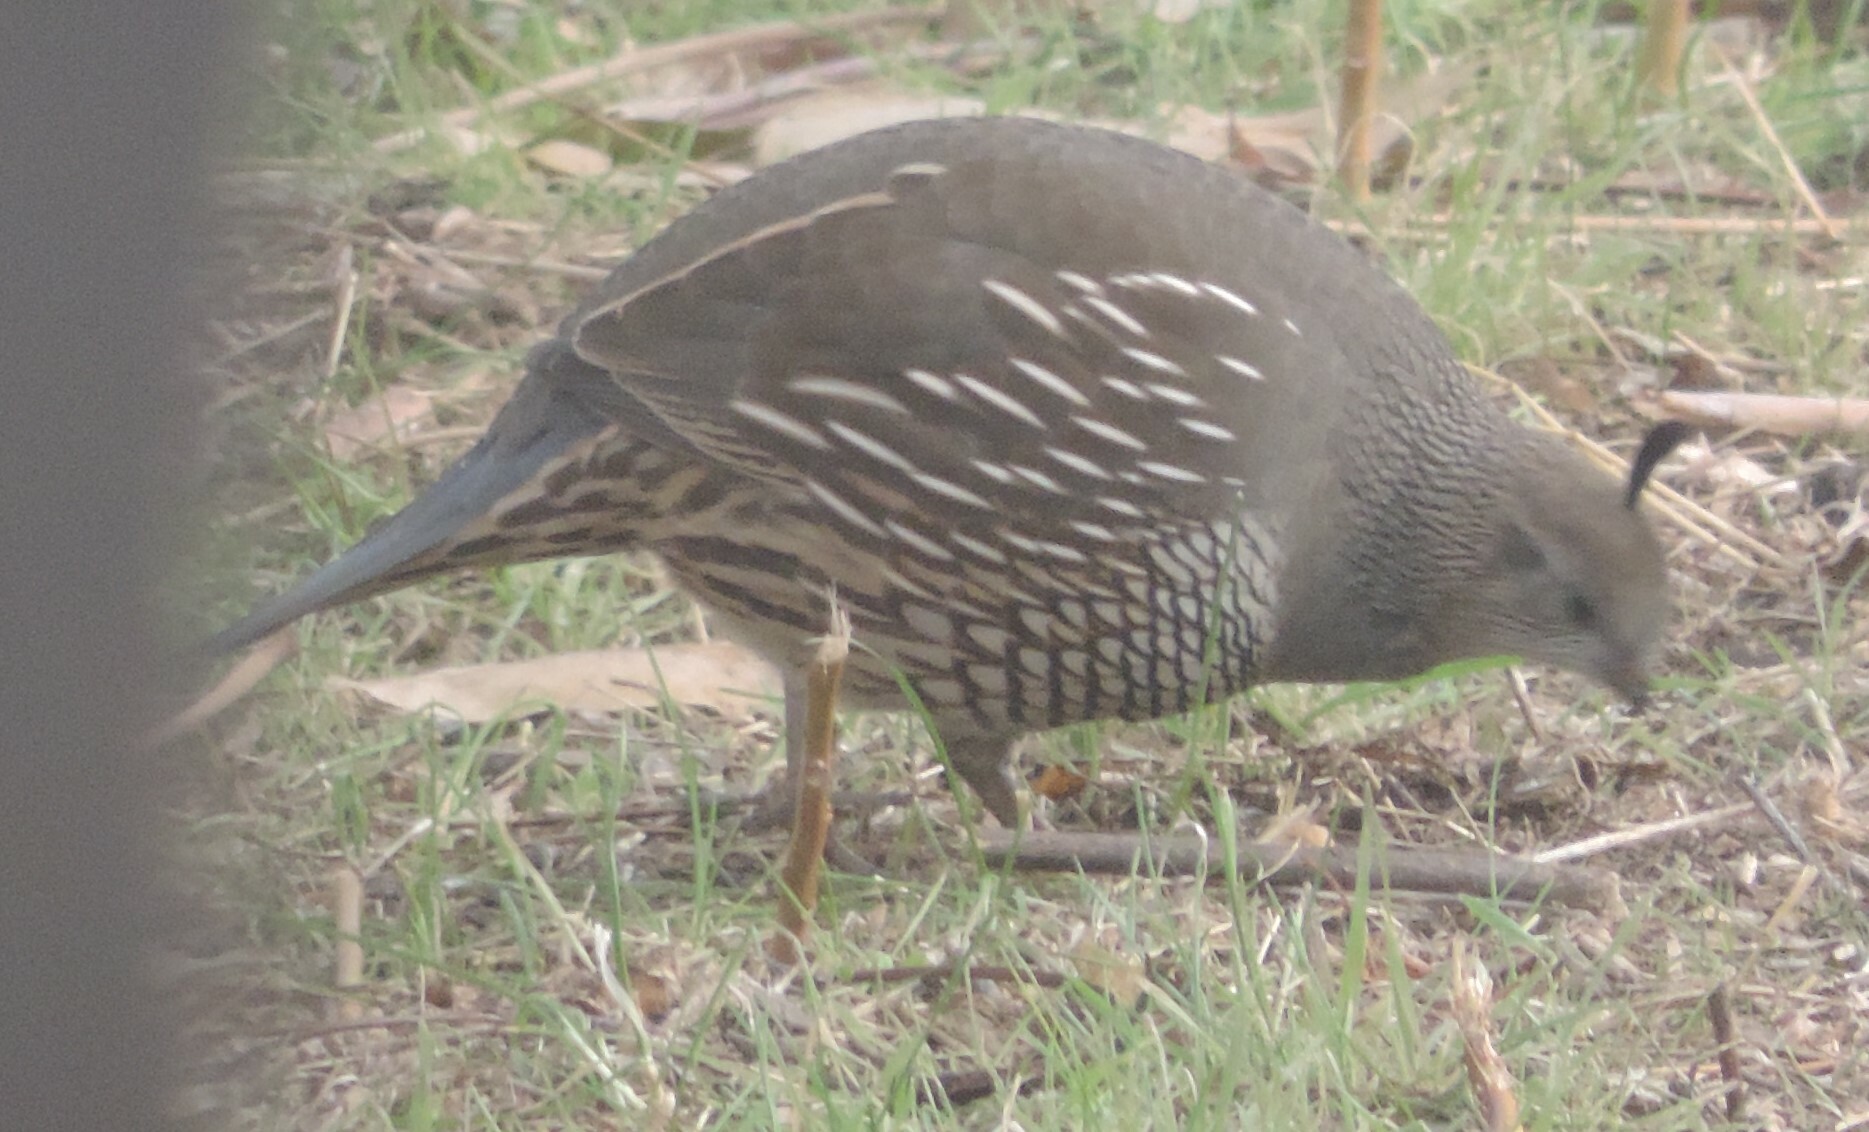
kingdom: Animalia
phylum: Chordata
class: Aves
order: Galliformes
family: Odontophoridae
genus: Callipepla
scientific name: Callipepla californica
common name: California quail
